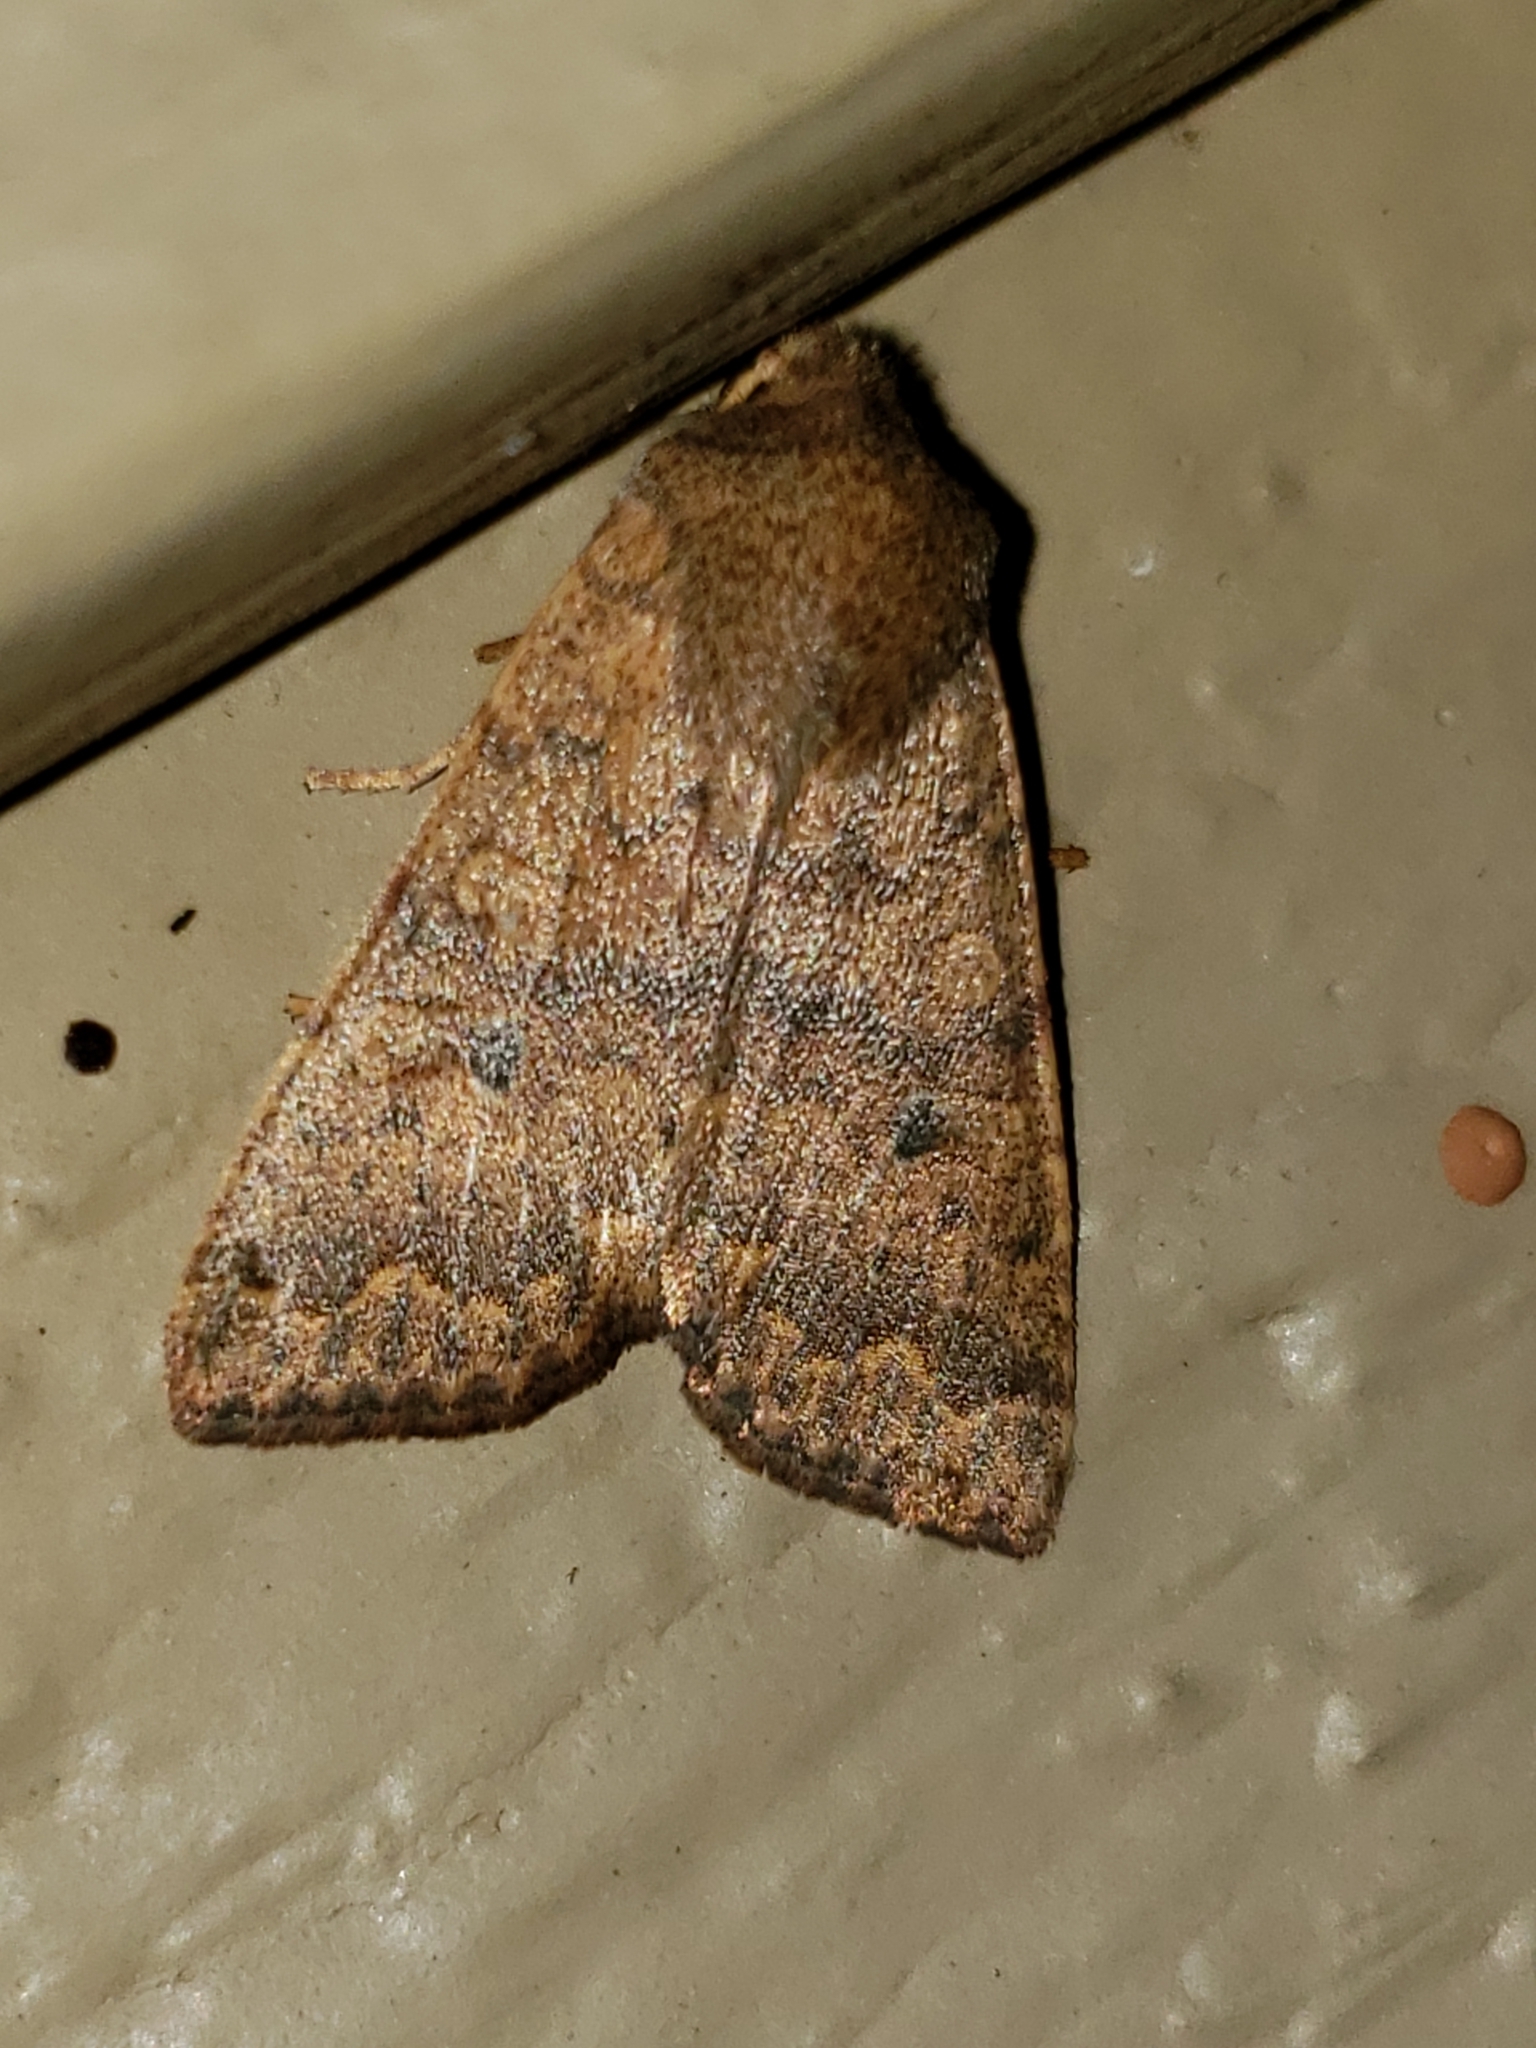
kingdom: Animalia
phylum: Arthropoda
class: Insecta
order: Lepidoptera
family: Noctuidae
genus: Agrochola
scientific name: Agrochola bicolorago
